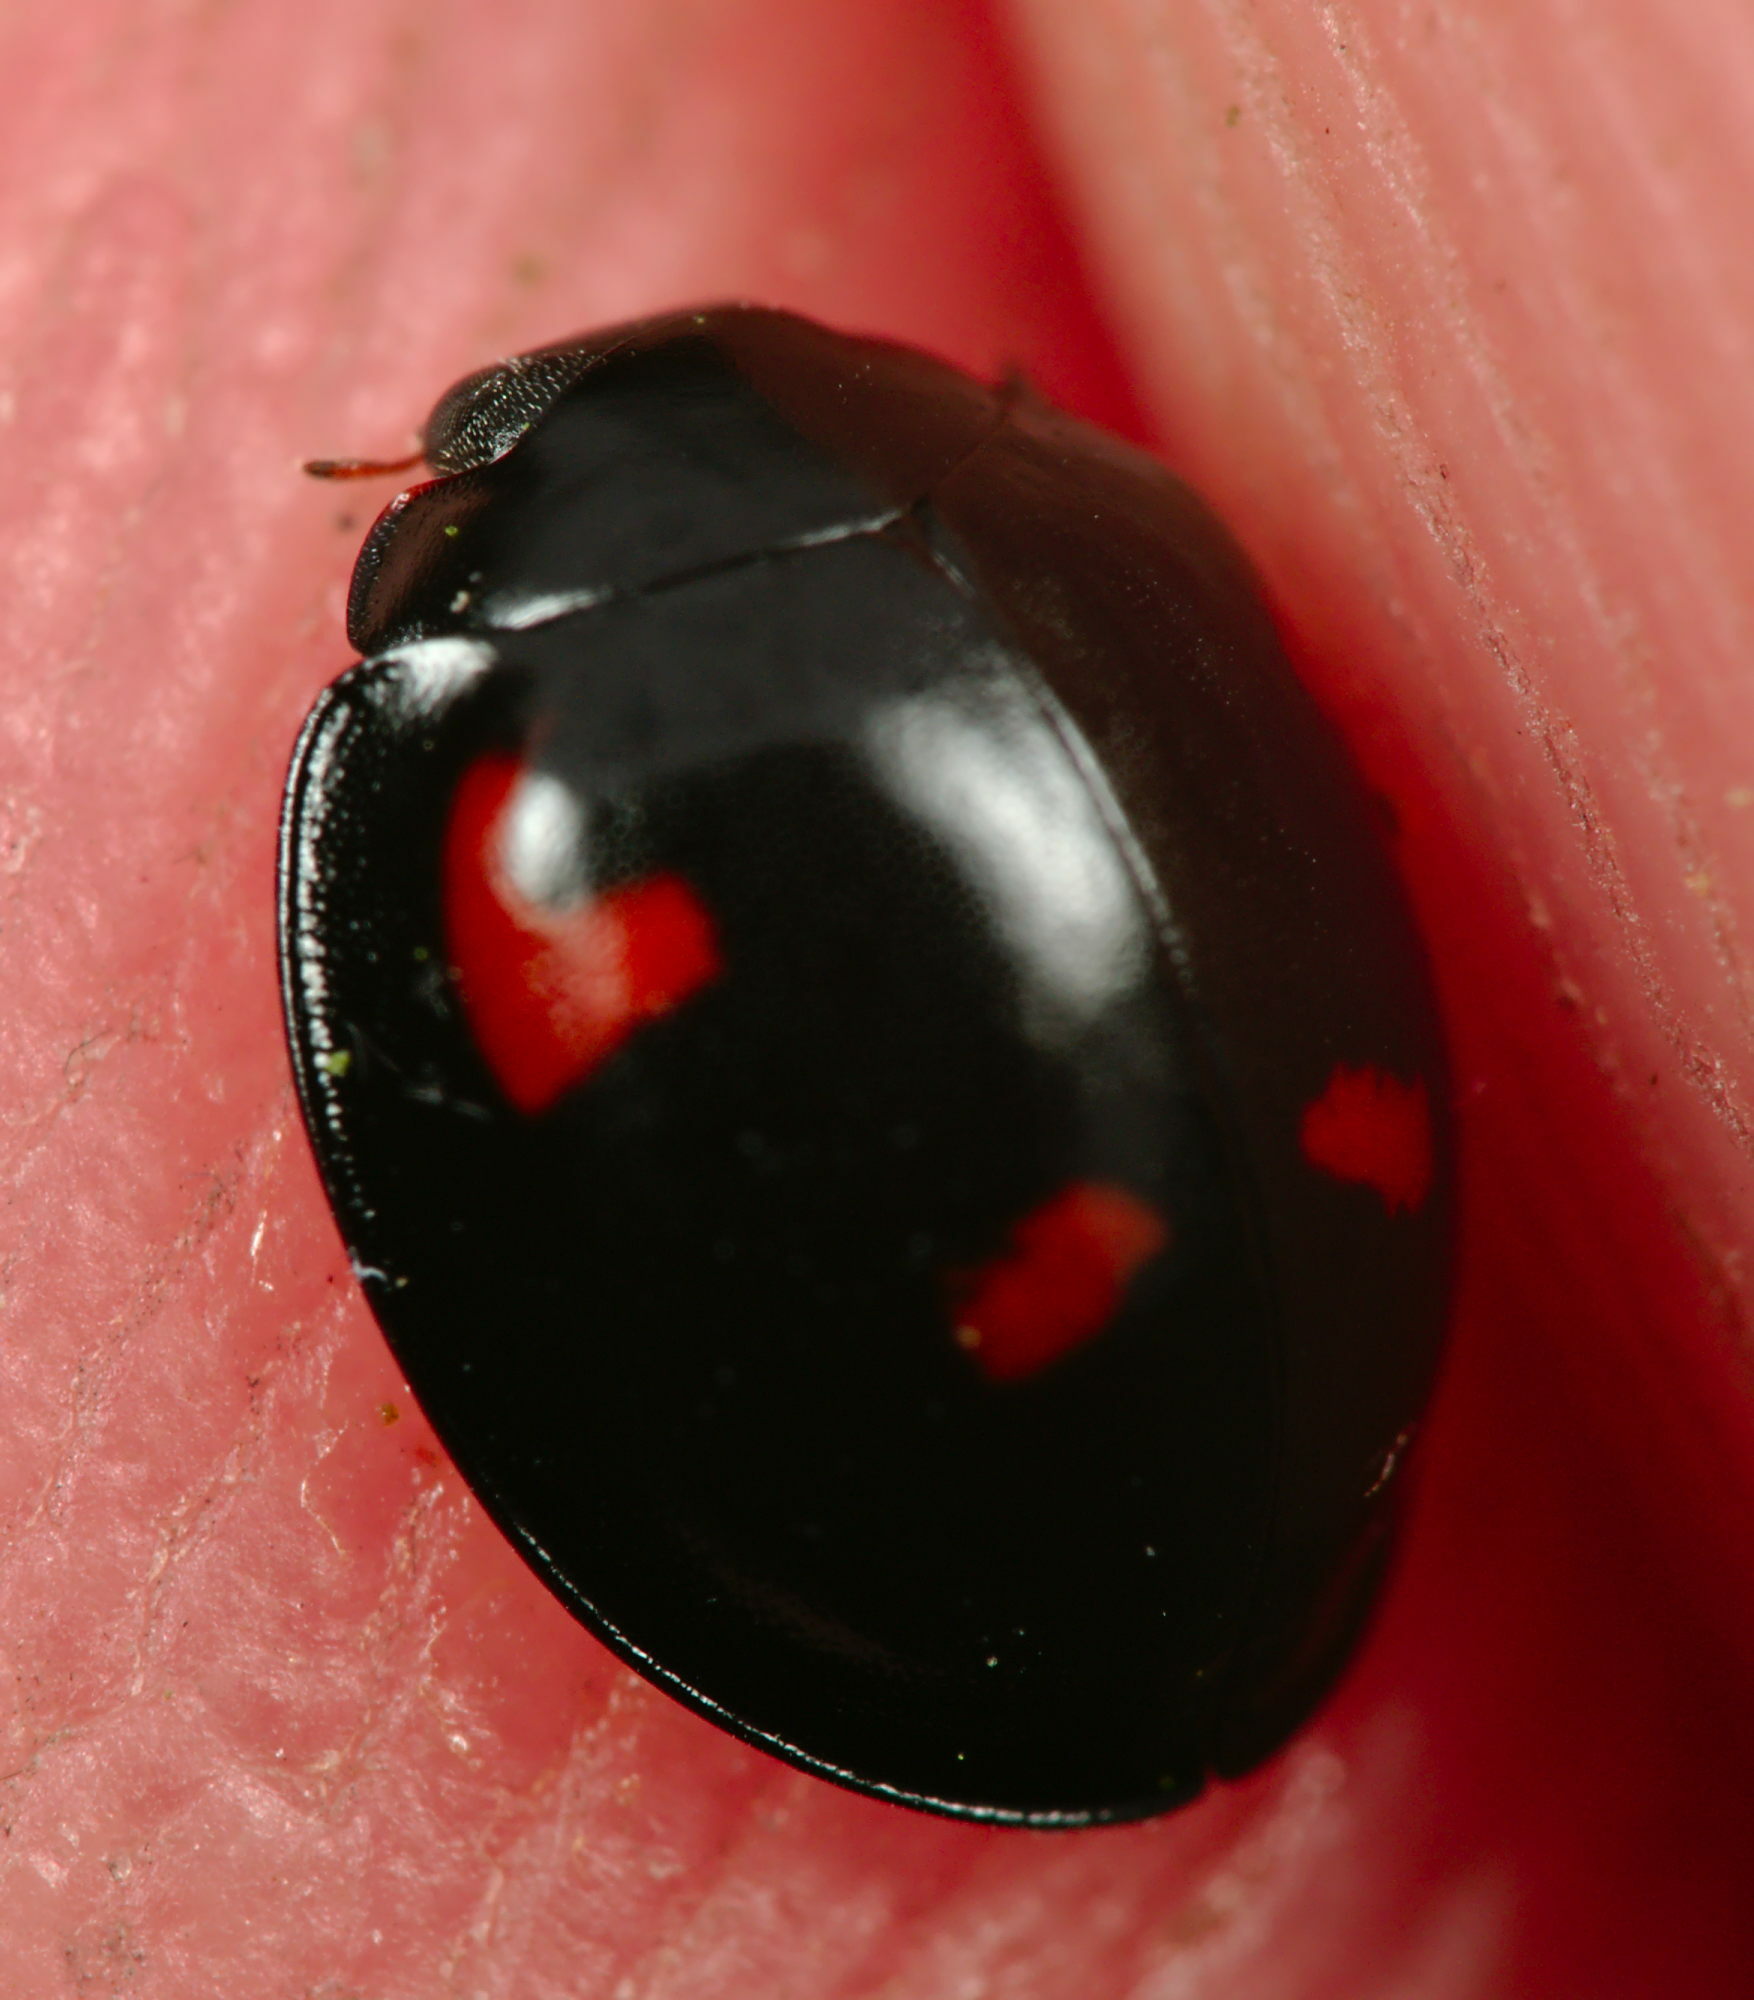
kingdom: Animalia
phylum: Arthropoda
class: Insecta
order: Coleoptera
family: Coccinellidae
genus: Brumus
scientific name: Brumus quadripustulatus
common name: Ladybird beetle
